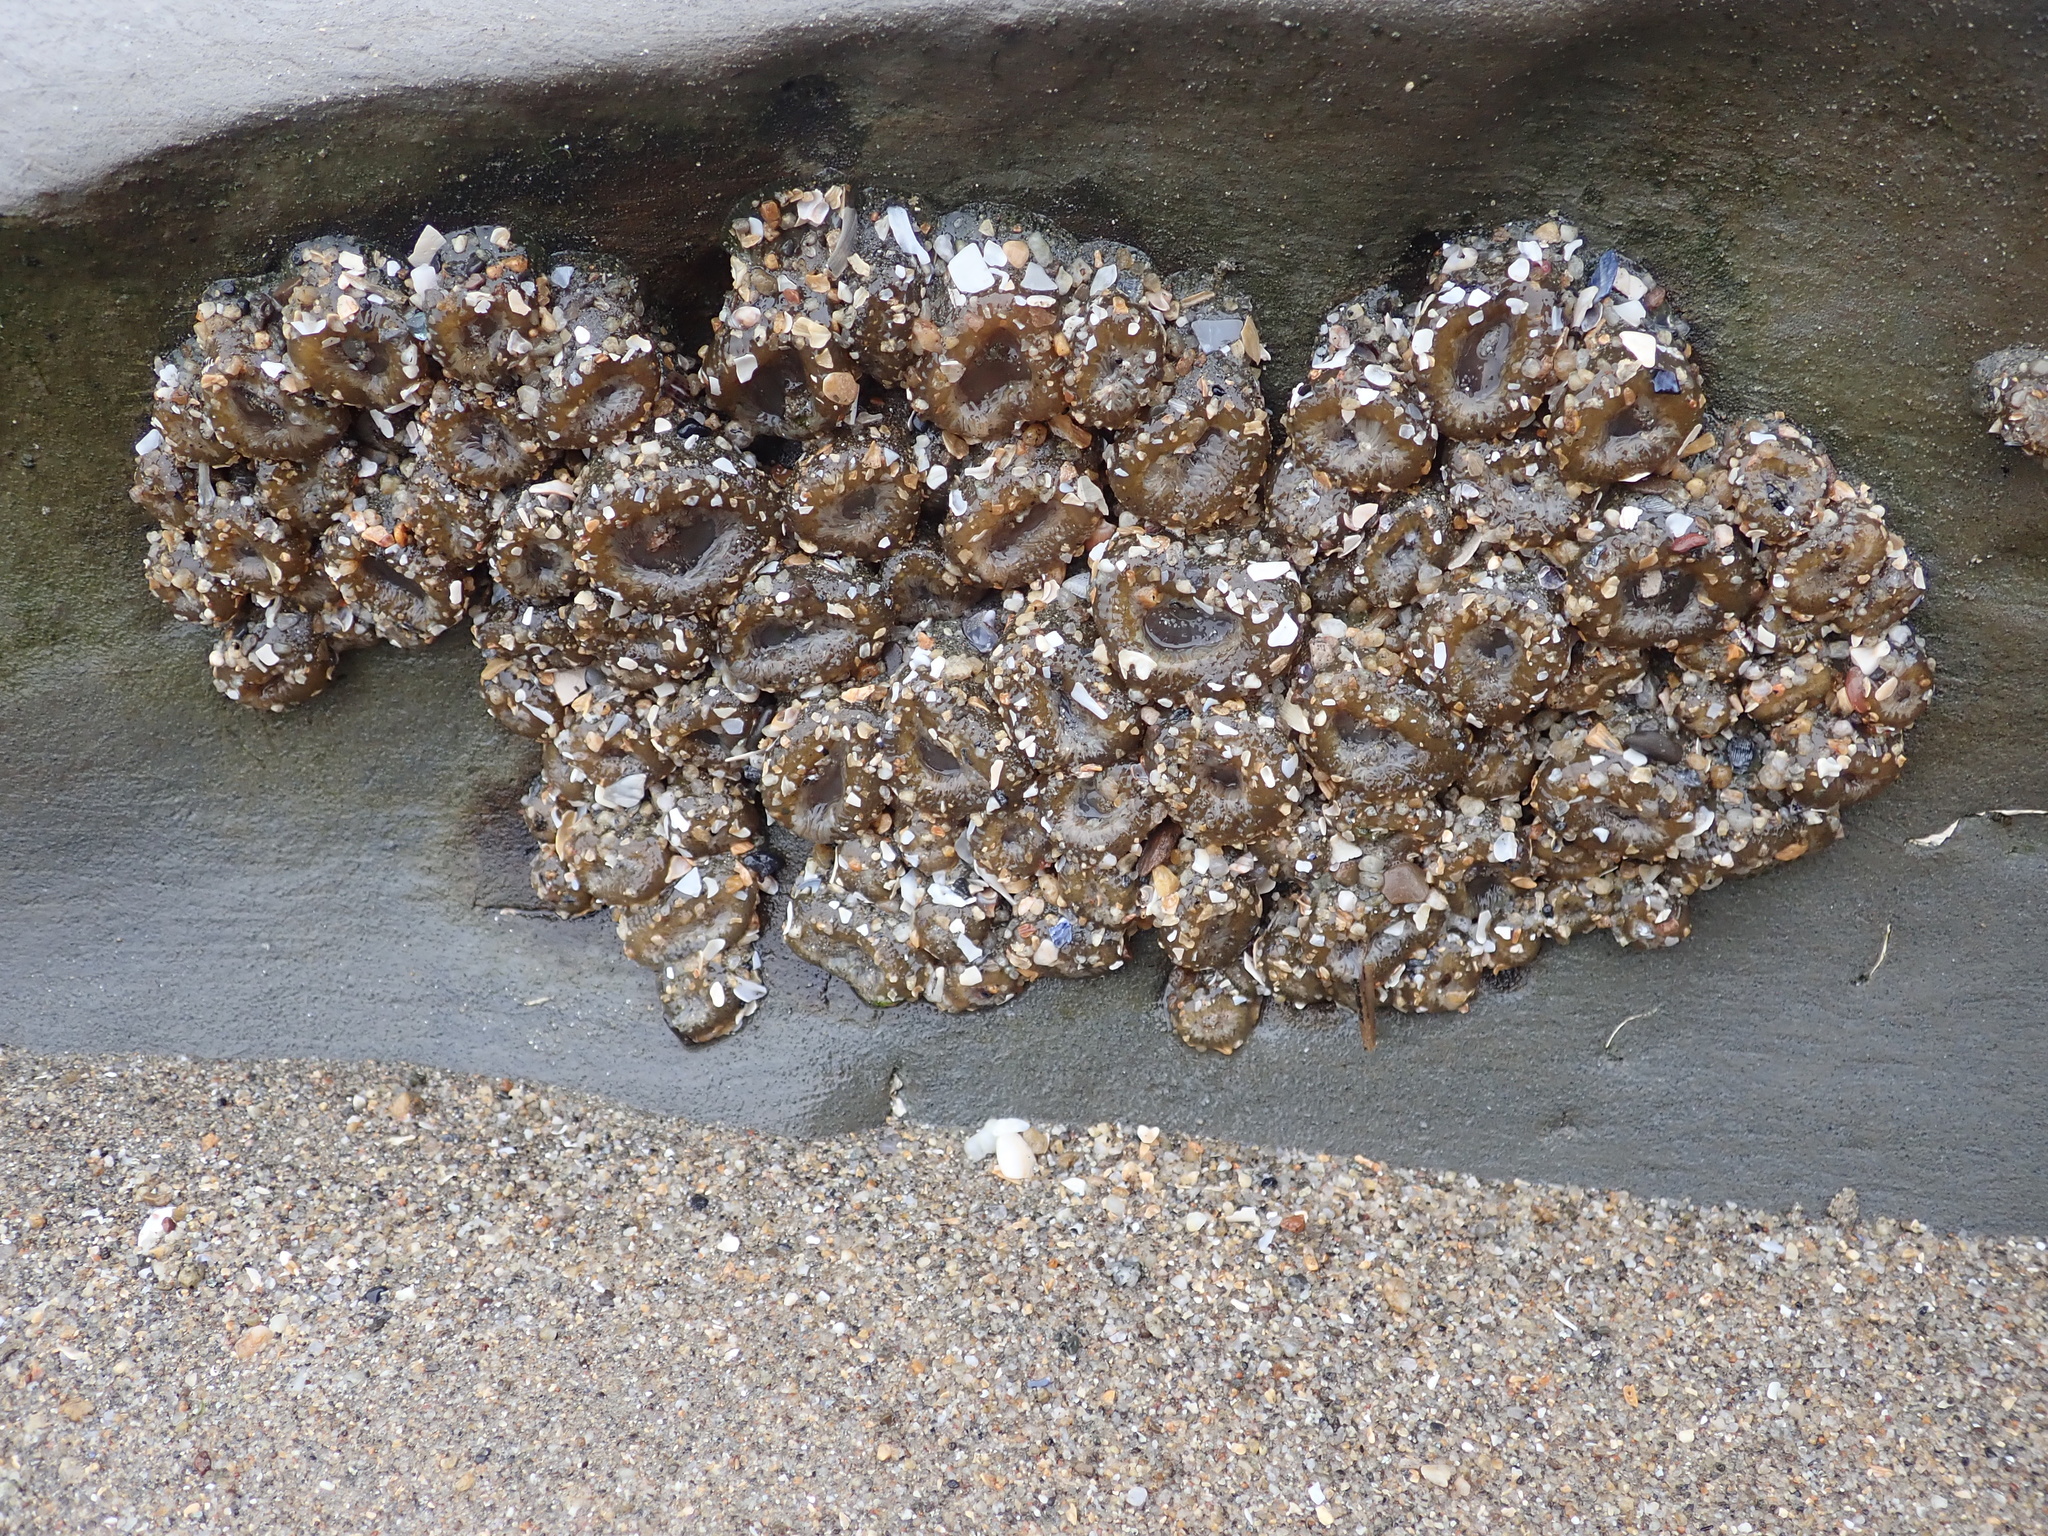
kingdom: Animalia
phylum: Cnidaria
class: Anthozoa
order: Actiniaria
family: Actiniidae
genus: Anthopleura
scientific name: Anthopleura elegantissima
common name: Clonal anemone
